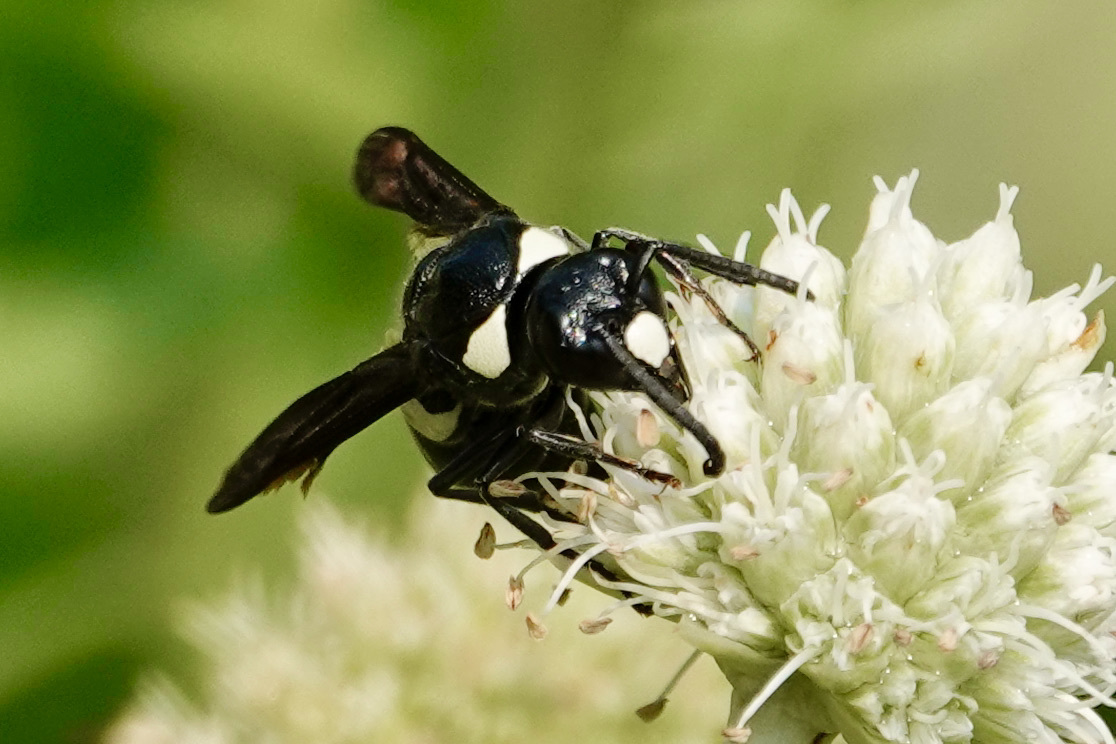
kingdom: Animalia
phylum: Arthropoda
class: Insecta
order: Hymenoptera
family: Eumenidae
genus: Monobia
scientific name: Monobia quadridens
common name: Four-toothed mason wasp
